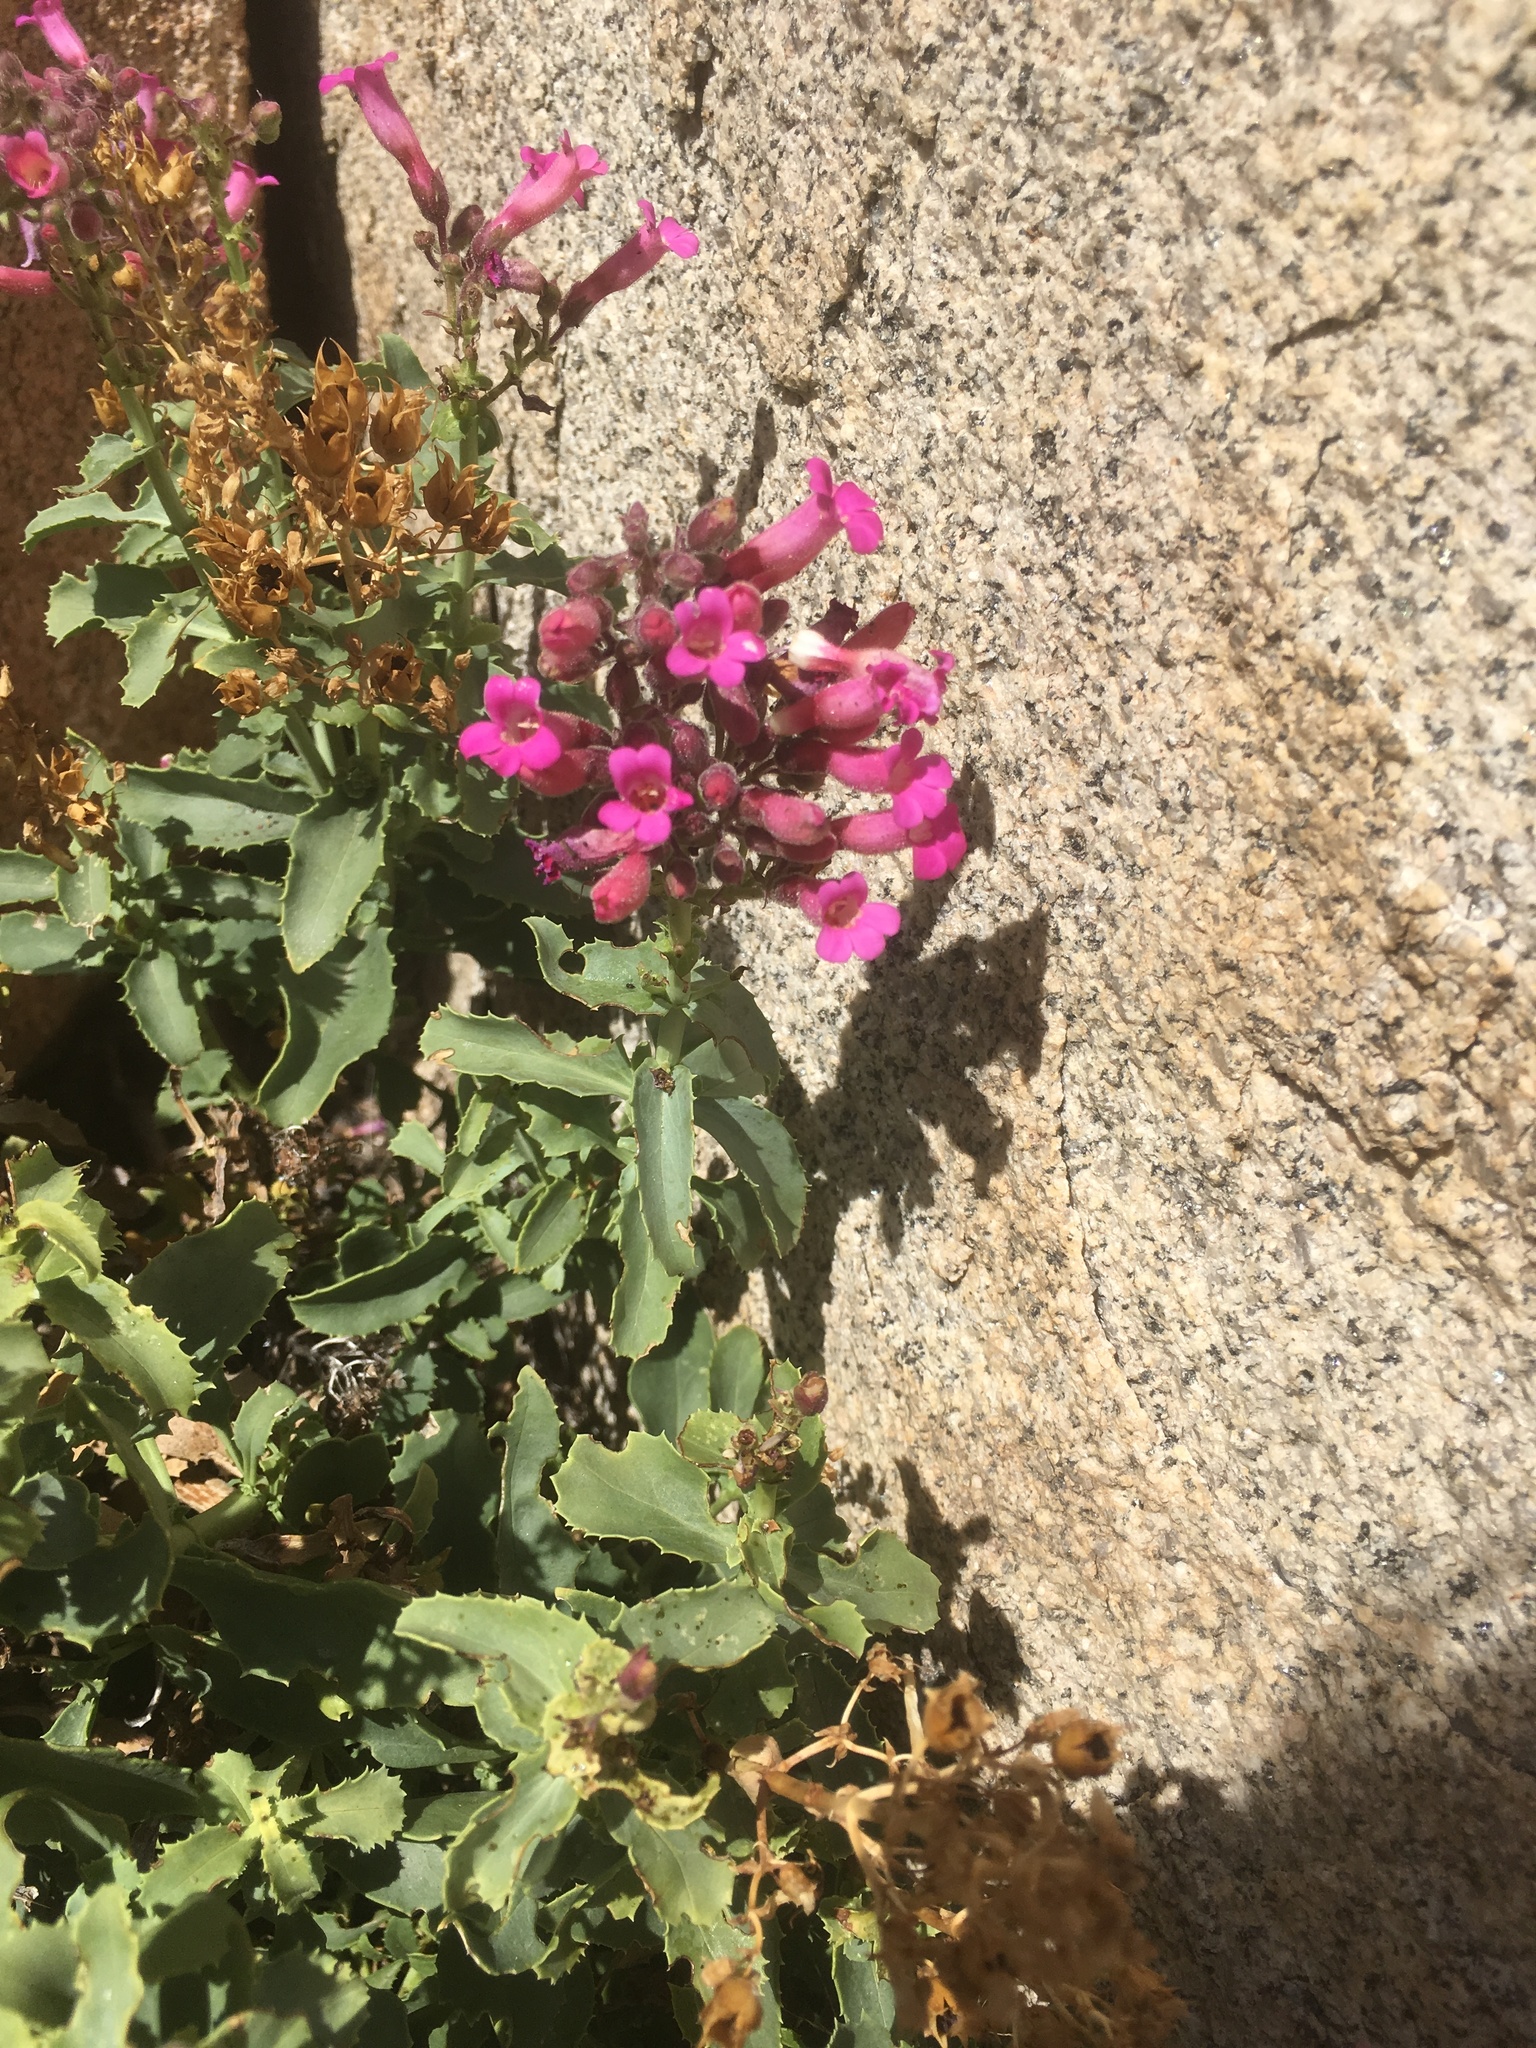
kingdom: Plantae
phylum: Tracheophyta
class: Magnoliopsida
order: Lamiales
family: Plantaginaceae
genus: Penstemon
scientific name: Penstemon clevelandii
